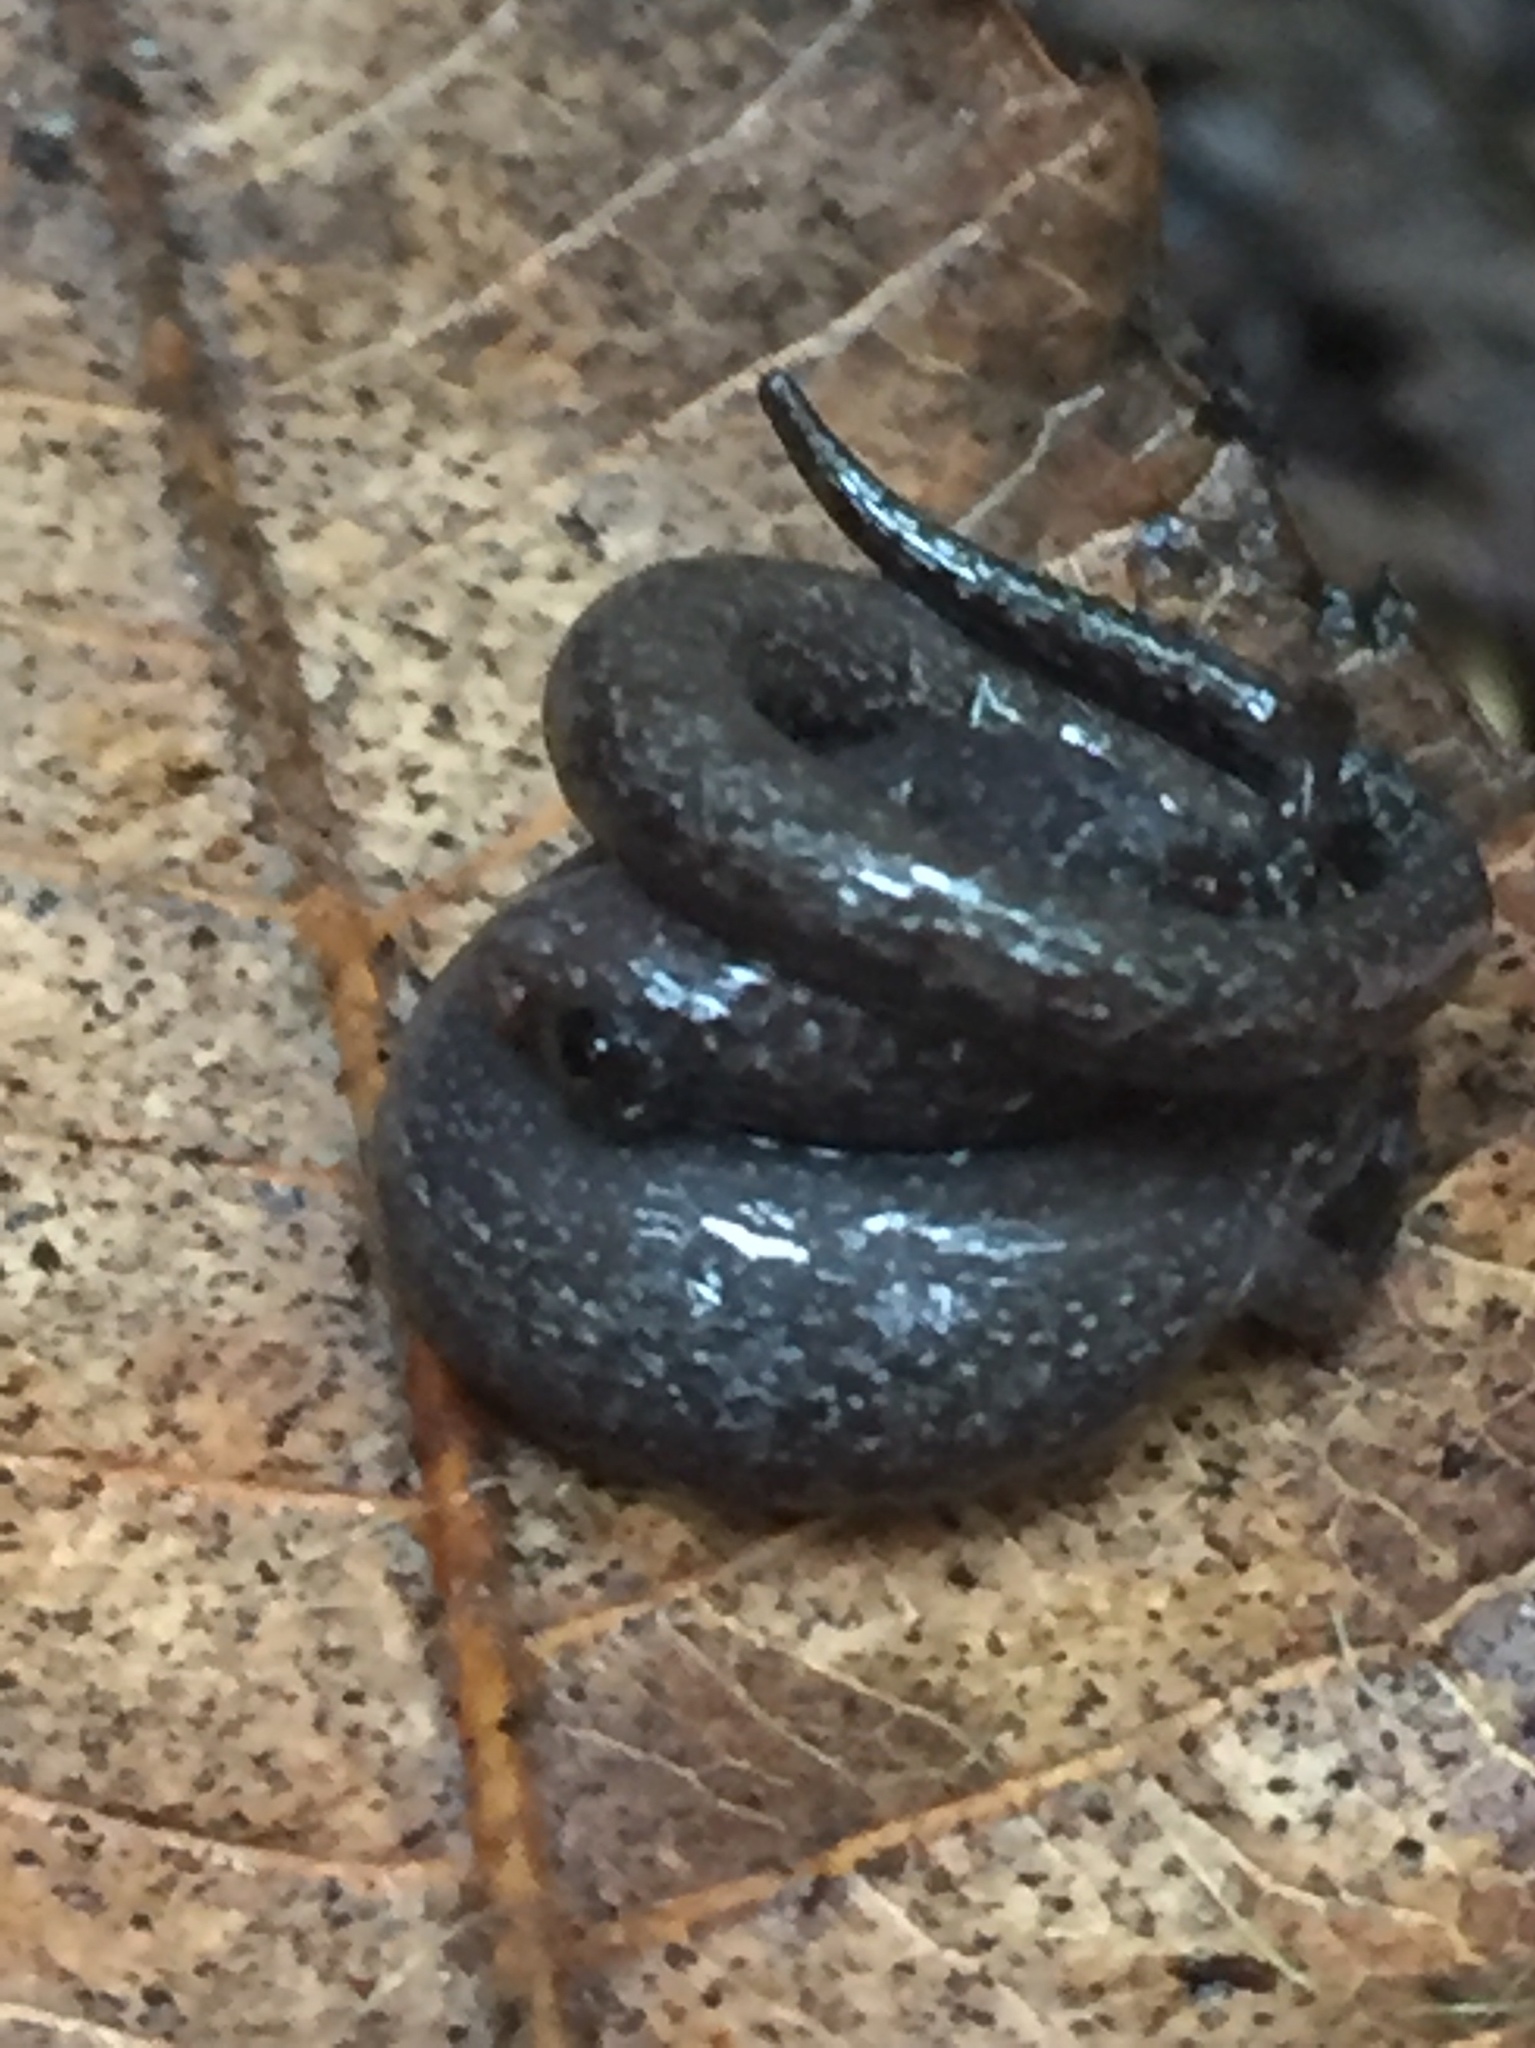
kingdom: Animalia
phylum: Chordata
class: Amphibia
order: Caudata
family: Plethodontidae
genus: Batrachoseps
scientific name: Batrachoseps attenuatus
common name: California slender salamander
